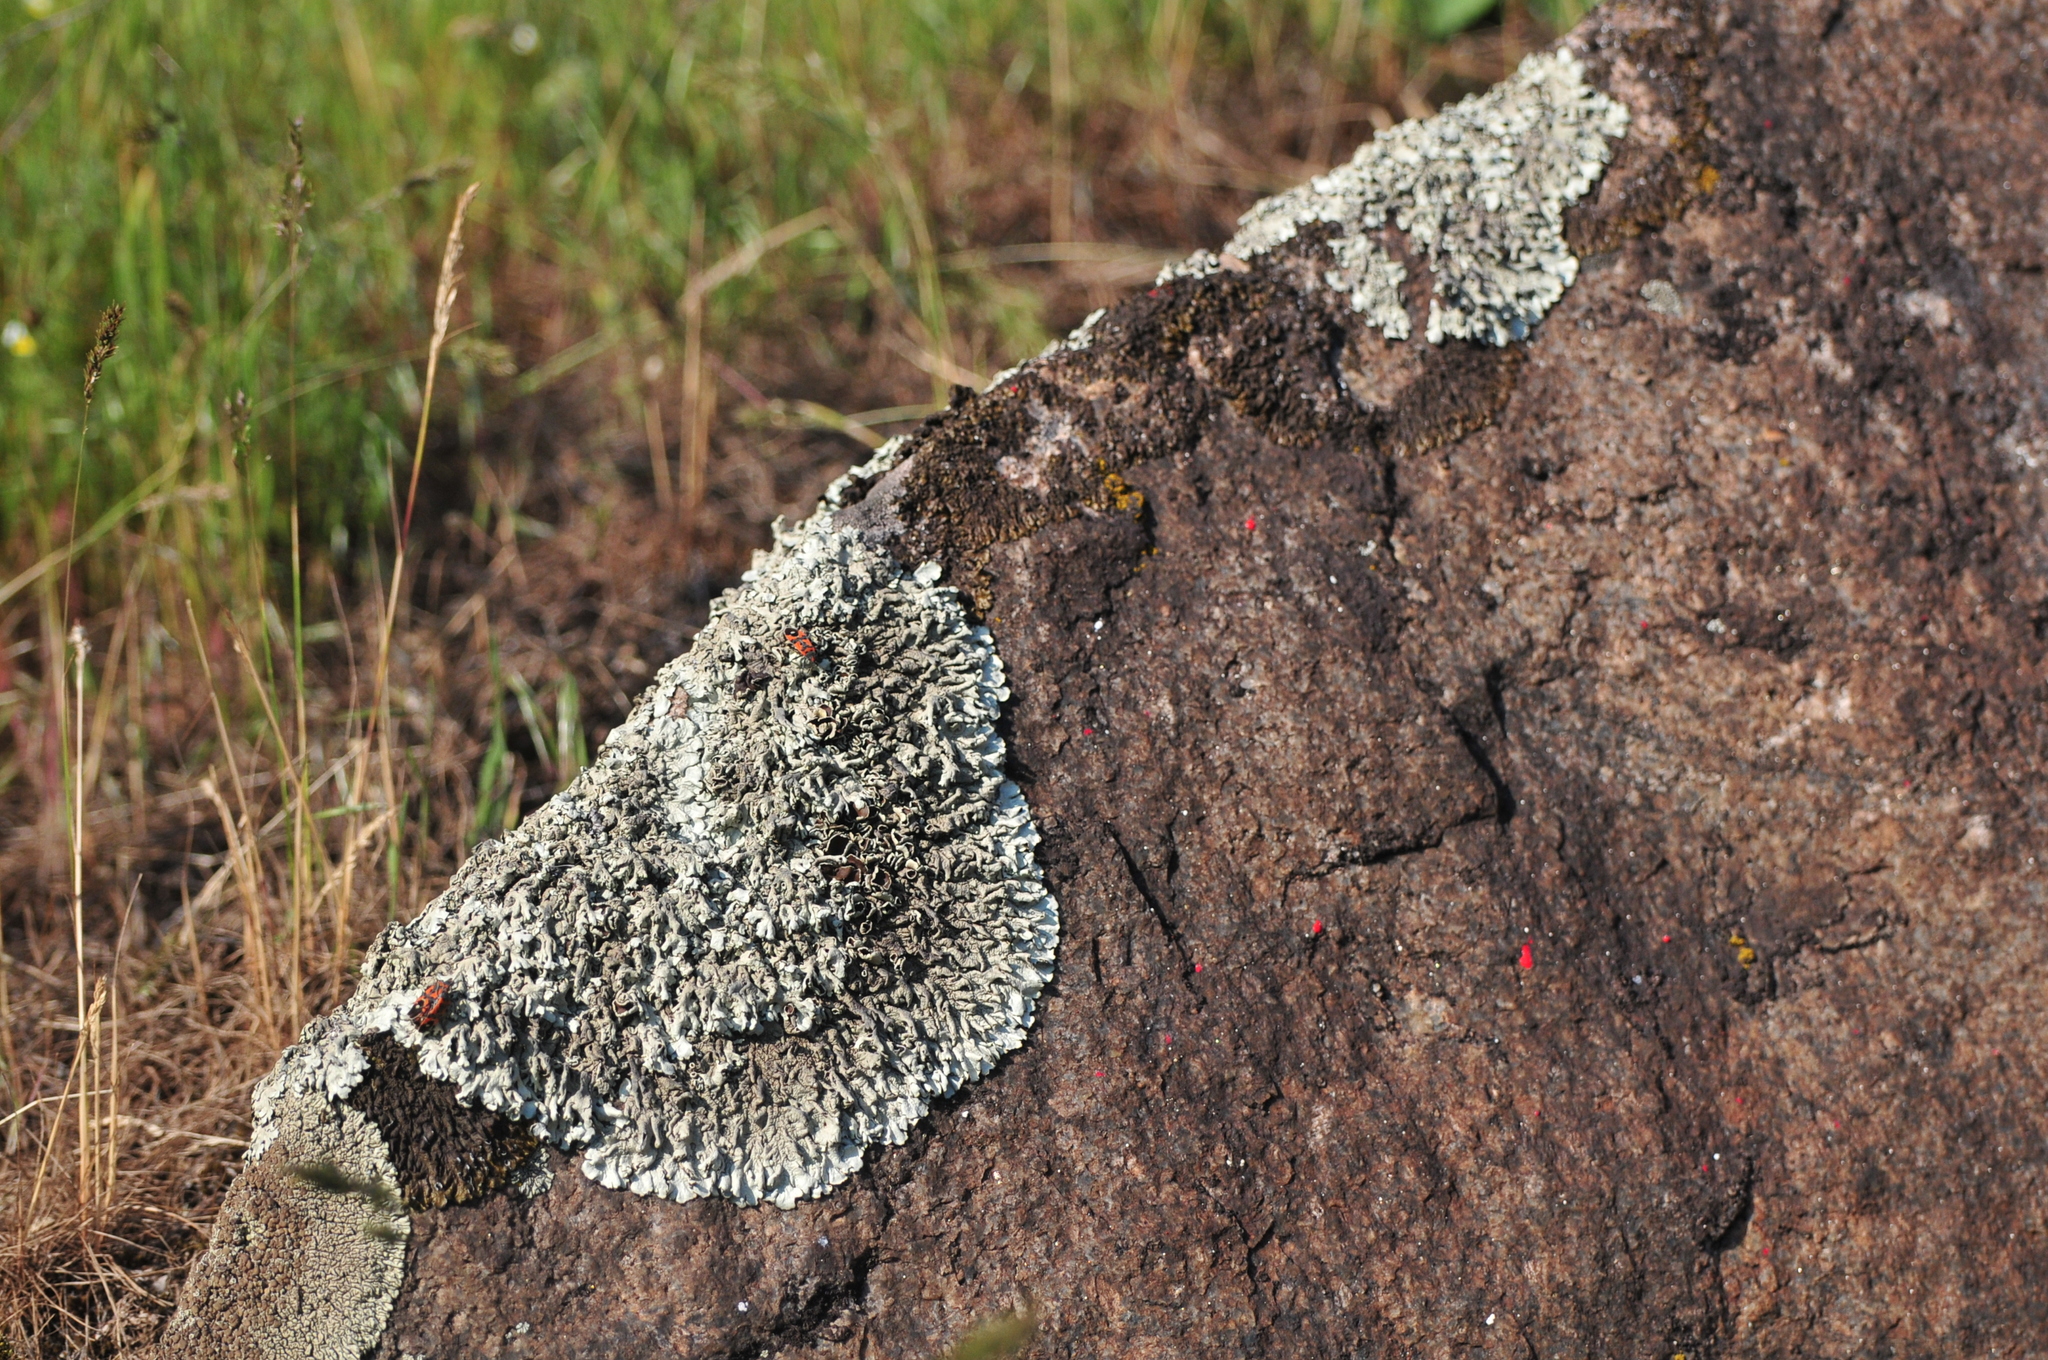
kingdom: Fungi
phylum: Ascomycota
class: Lecanoromycetes
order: Lecanorales
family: Parmeliaceae
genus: Xanthoparmelia
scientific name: Xanthoparmelia conspersa
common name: Peppered rock shield
